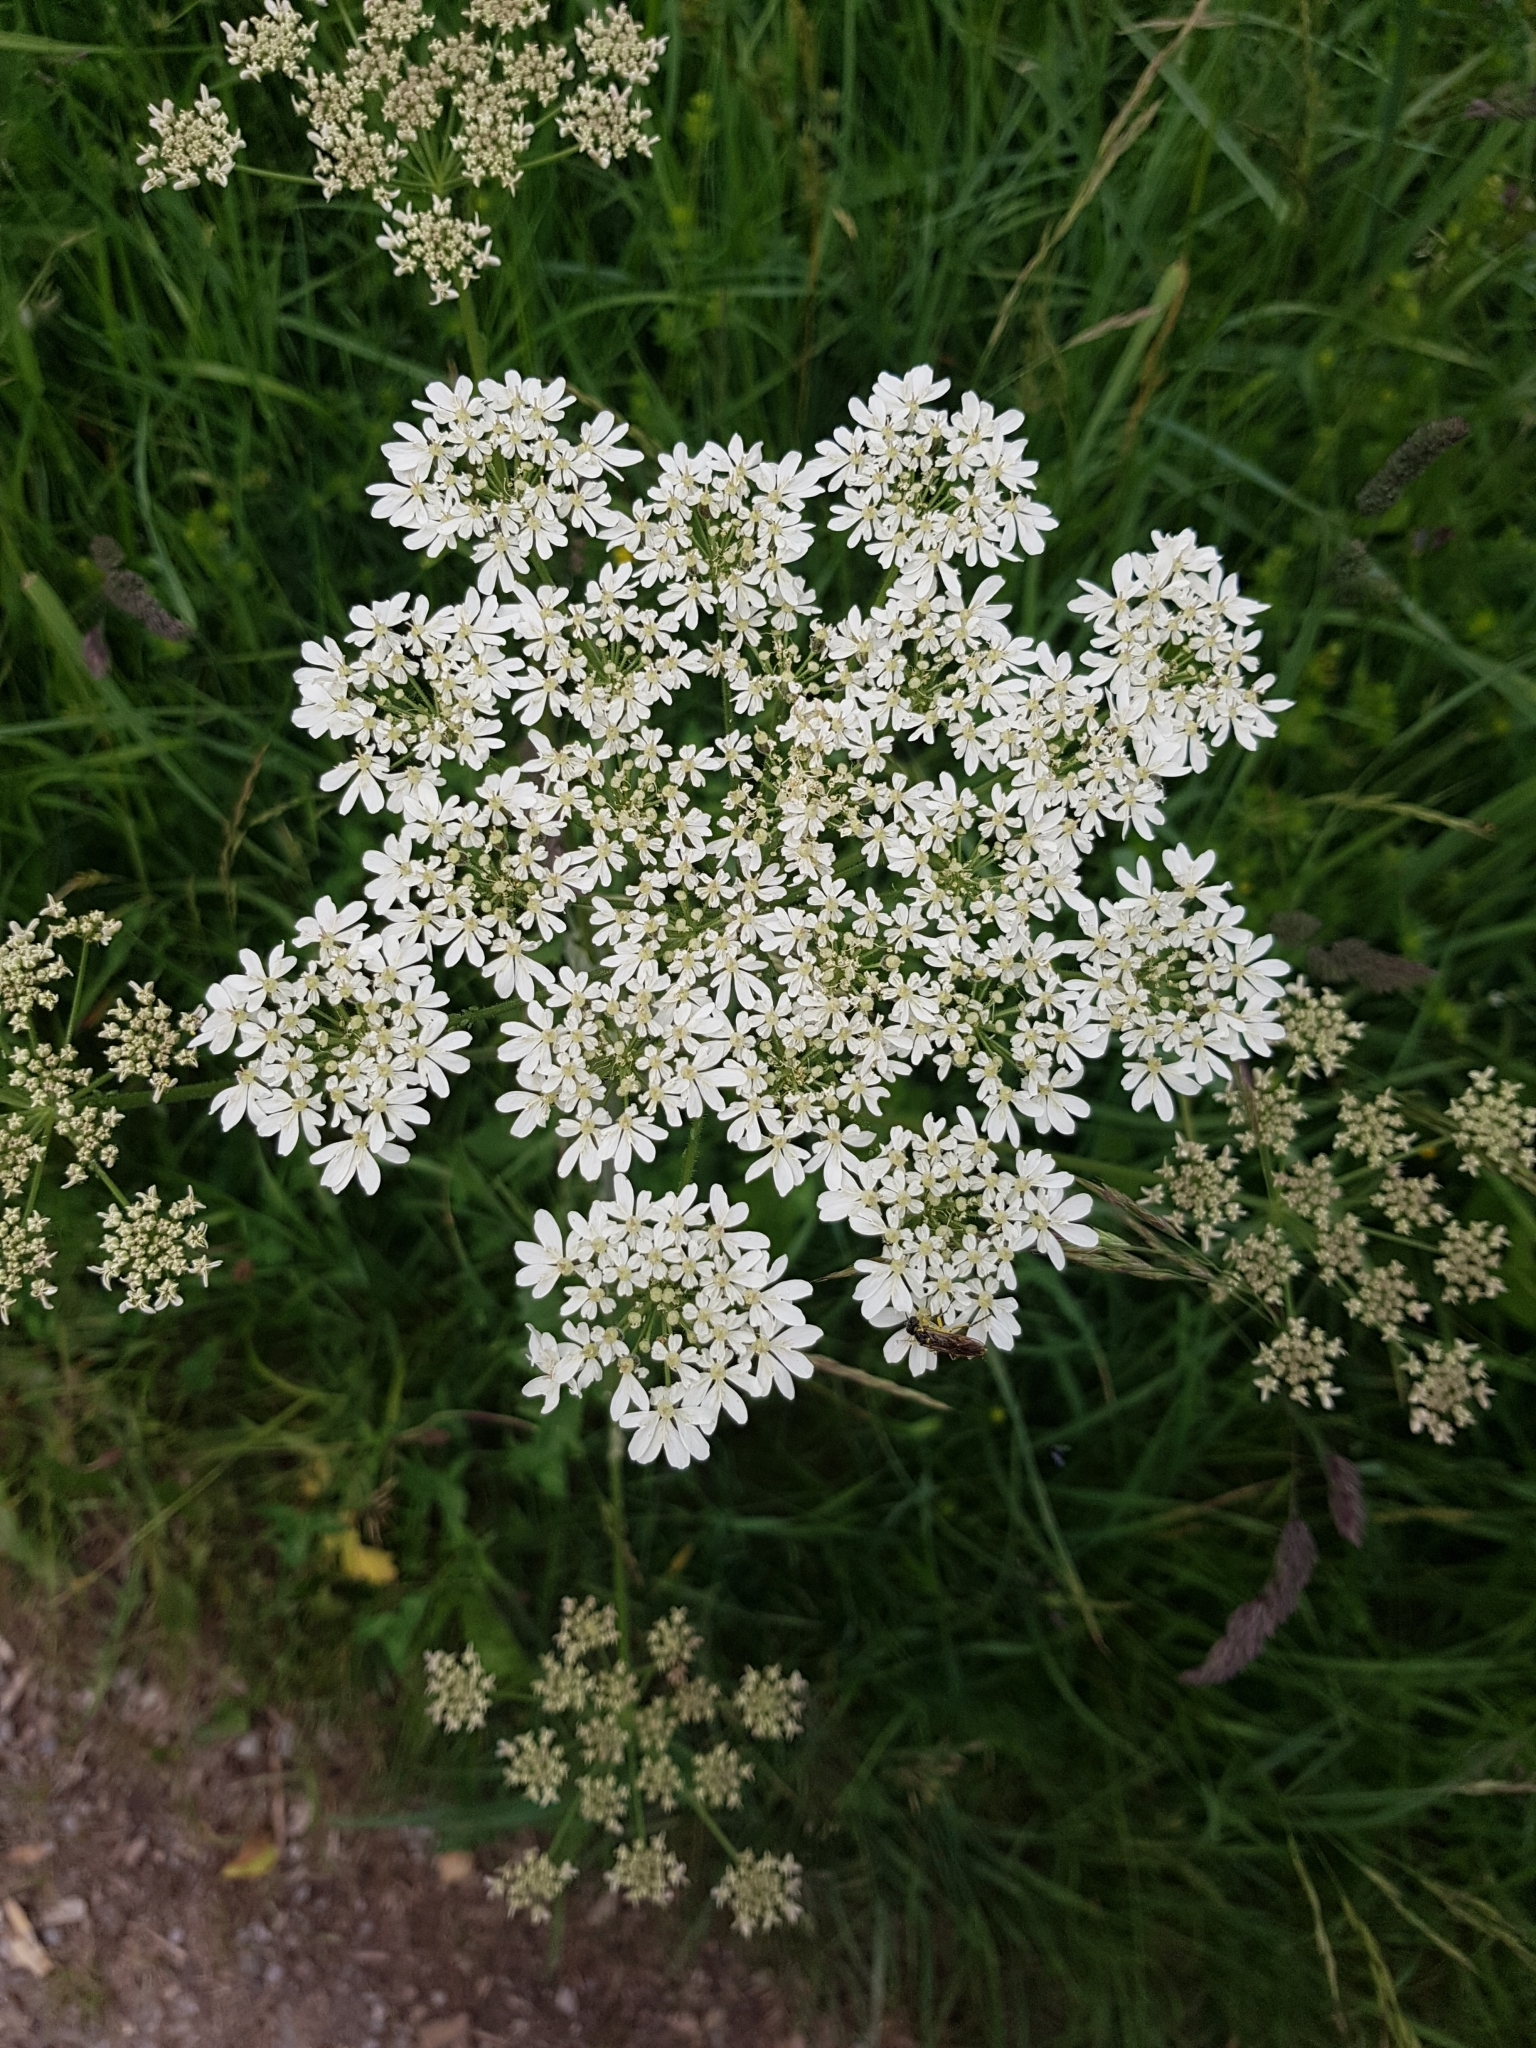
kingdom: Plantae
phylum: Tracheophyta
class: Magnoliopsida
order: Apiales
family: Apiaceae
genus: Heracleum
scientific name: Heracleum sphondylium
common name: Hogweed
